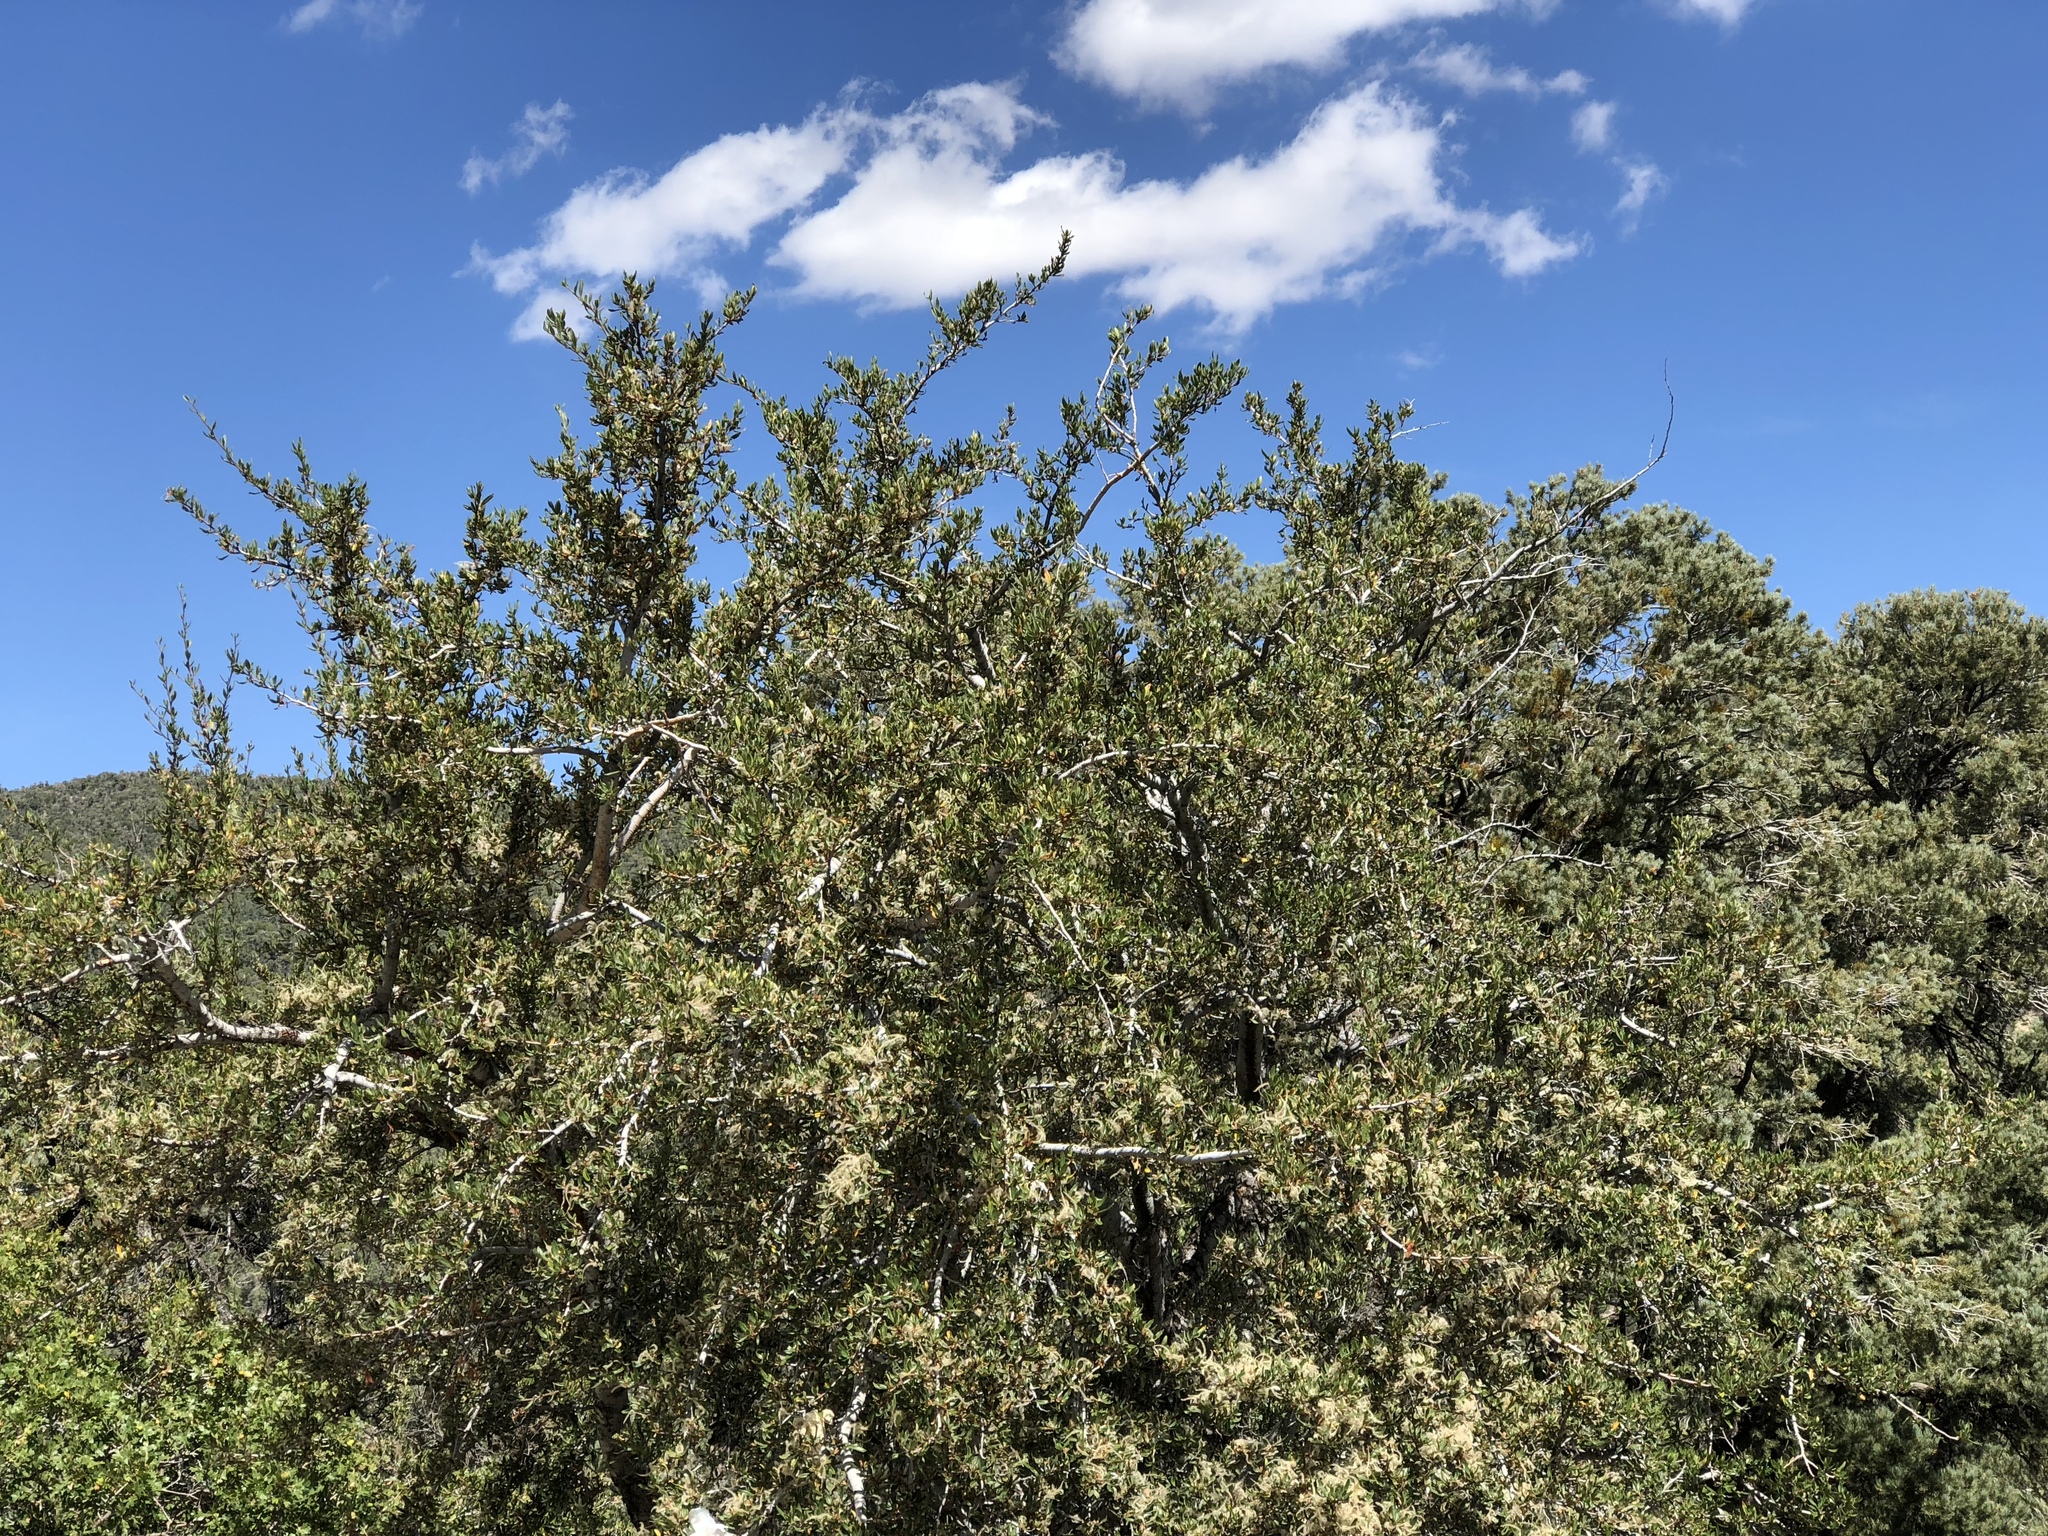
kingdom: Plantae
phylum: Tracheophyta
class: Magnoliopsida
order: Rosales
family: Rosaceae
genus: Cercocarpus
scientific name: Cercocarpus ledifolius
